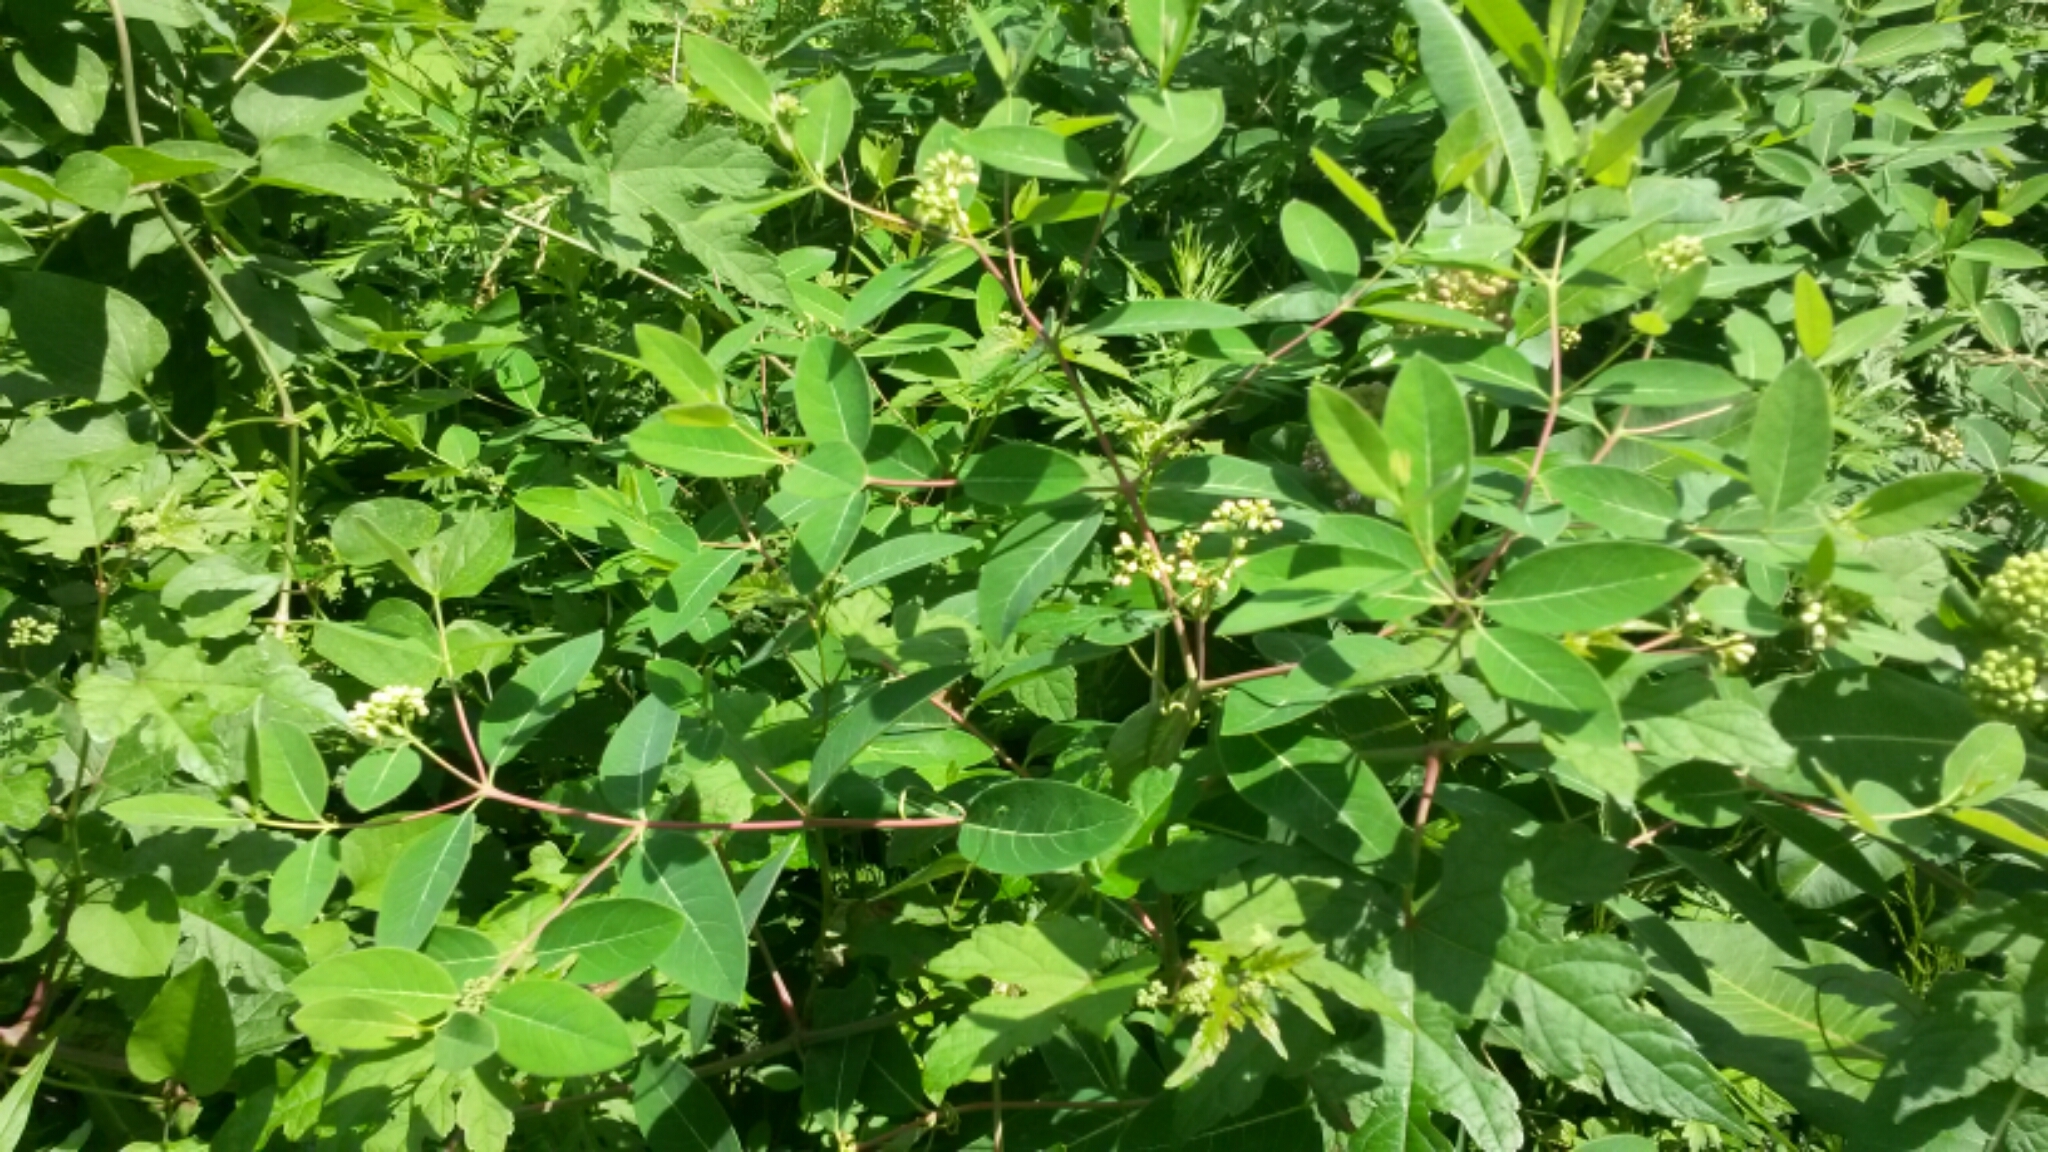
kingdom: Plantae
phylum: Tracheophyta
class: Magnoliopsida
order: Gentianales
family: Apocynaceae
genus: Apocynum
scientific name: Apocynum cannabinum
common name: Hemp dogbane
